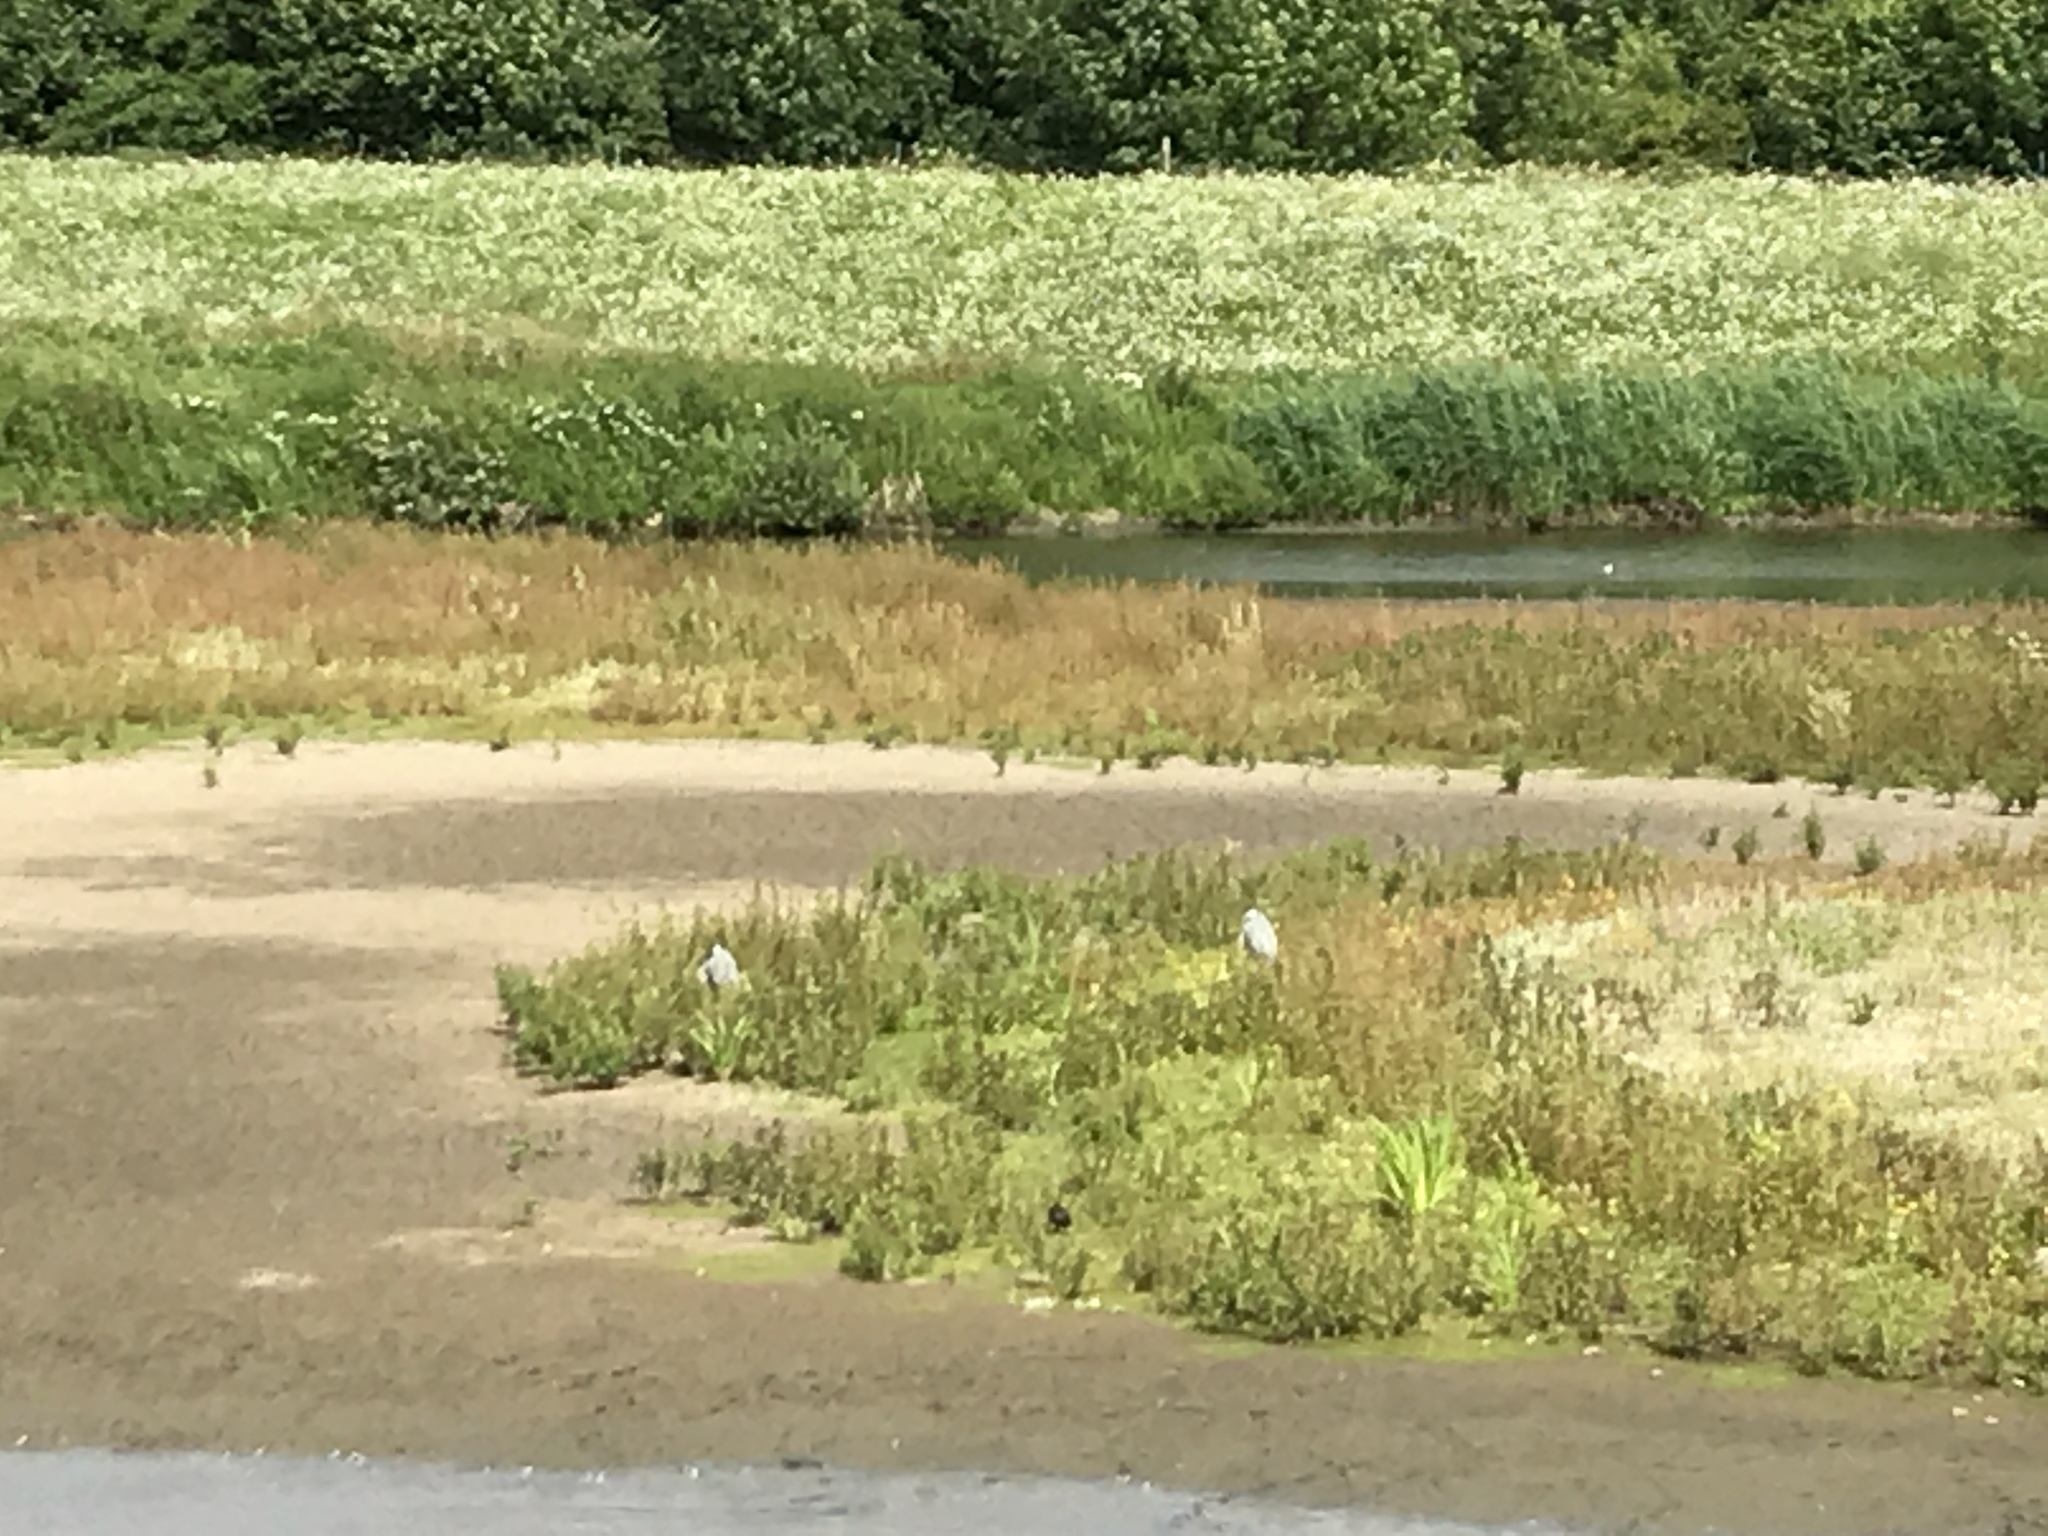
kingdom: Animalia
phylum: Chordata
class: Aves
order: Pelecaniformes
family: Ardeidae
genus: Ardea
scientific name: Ardea cinerea
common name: Grey heron
